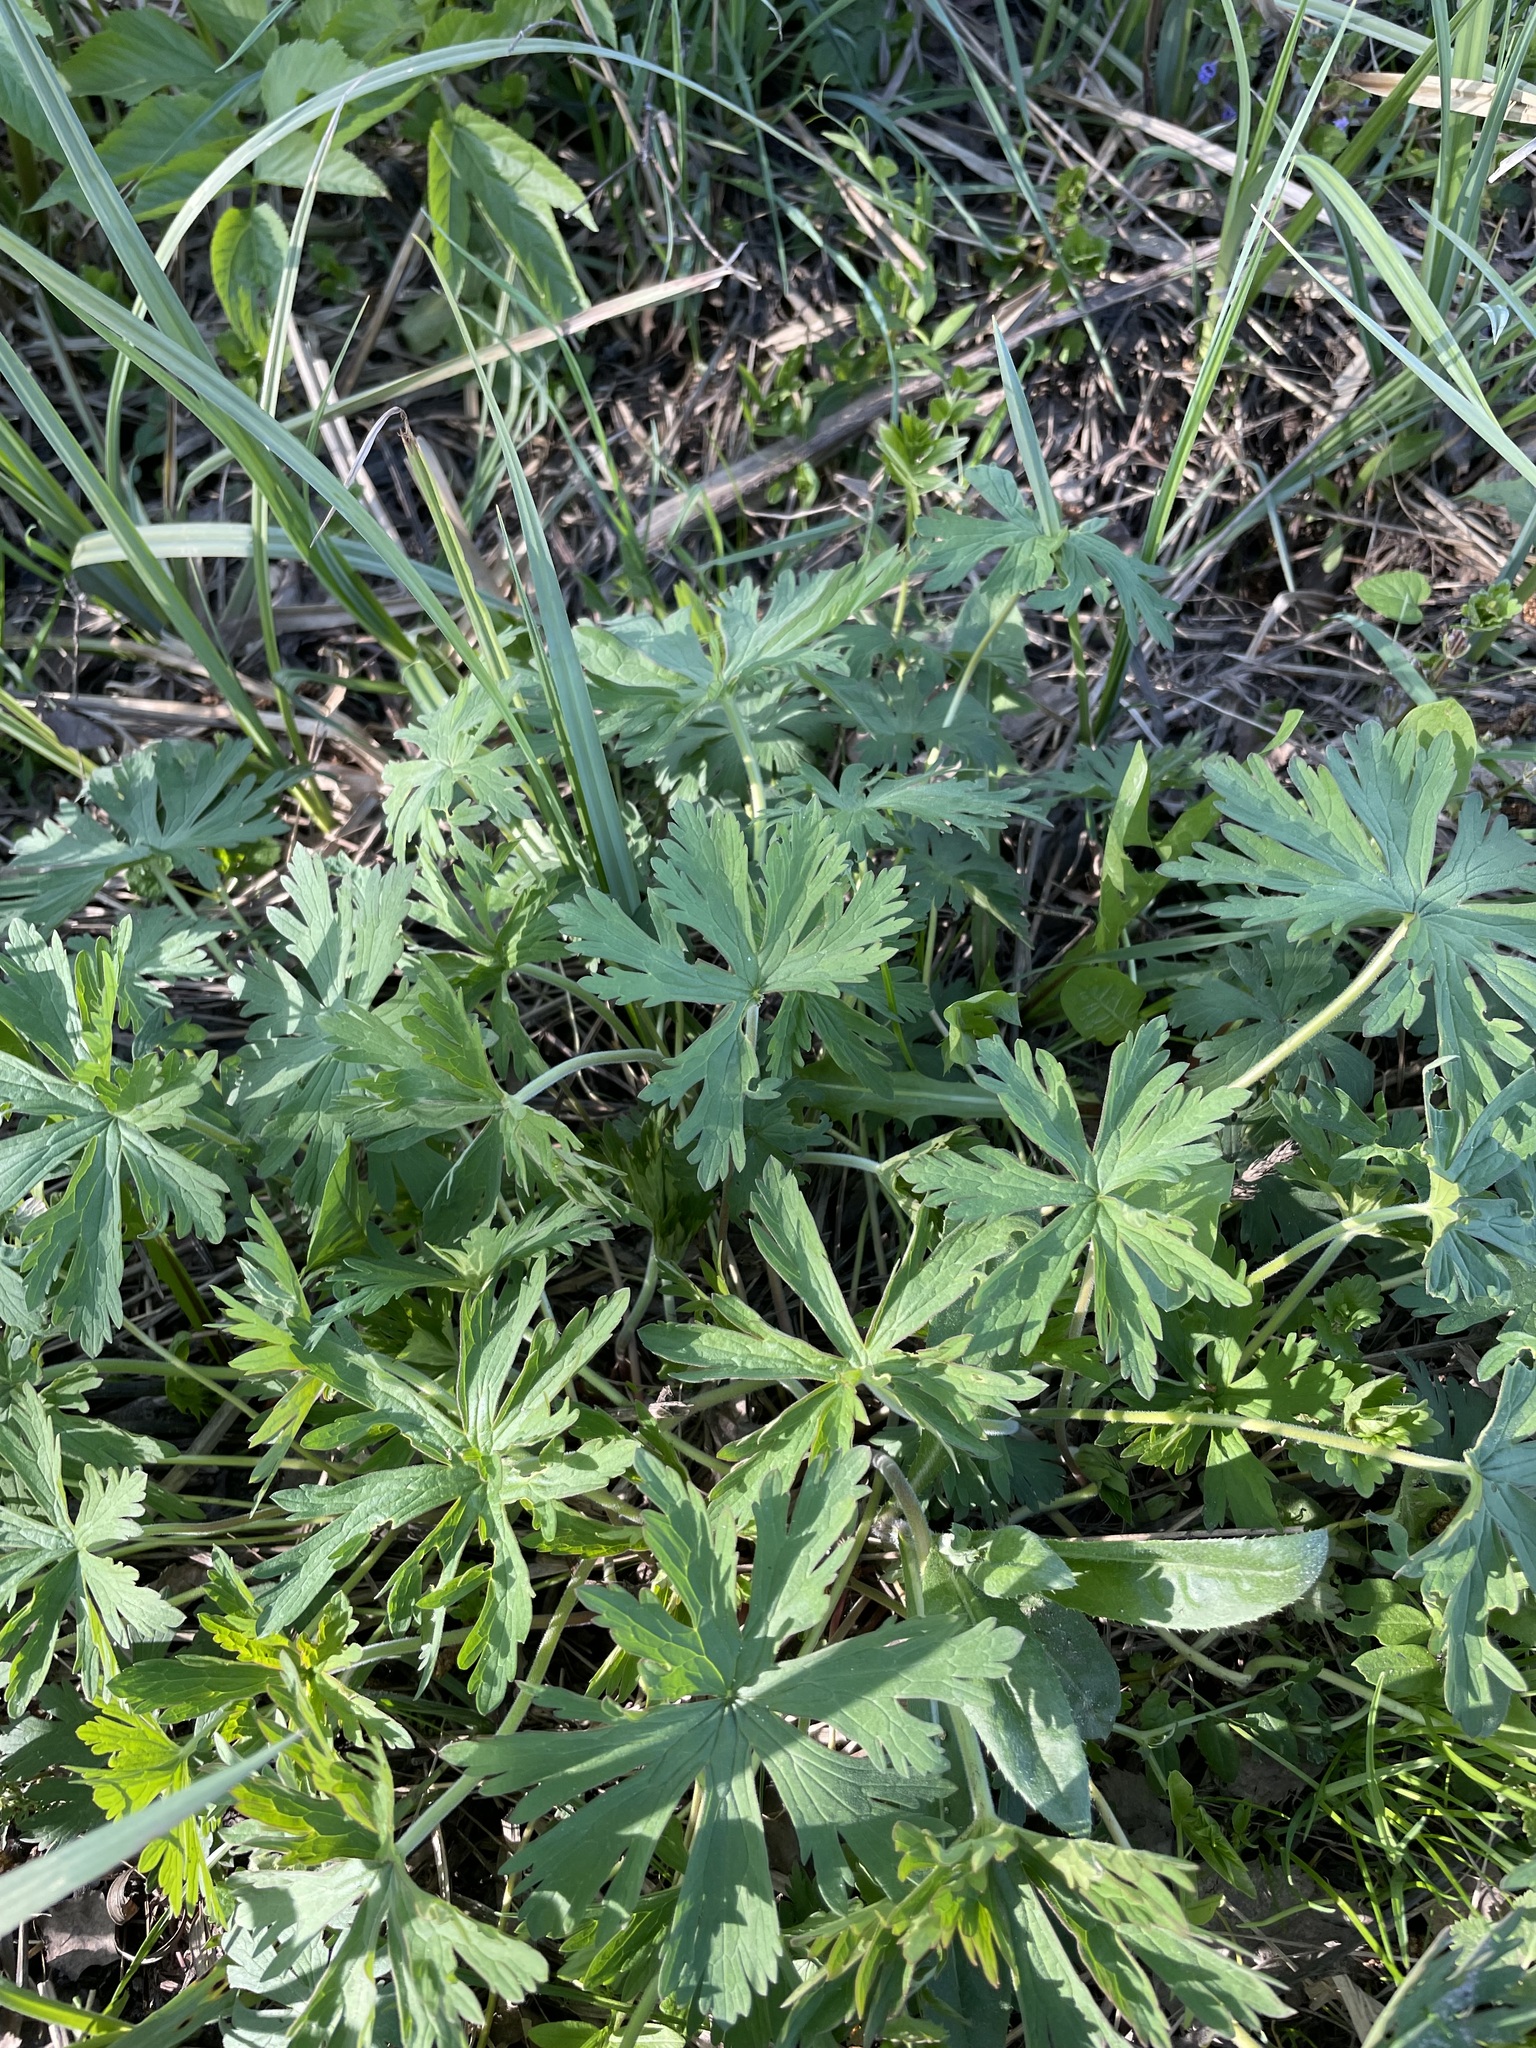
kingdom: Plantae
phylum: Tracheophyta
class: Magnoliopsida
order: Geraniales
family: Geraniaceae
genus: Geranium
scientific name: Geranium pratense
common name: Meadow crane's-bill
